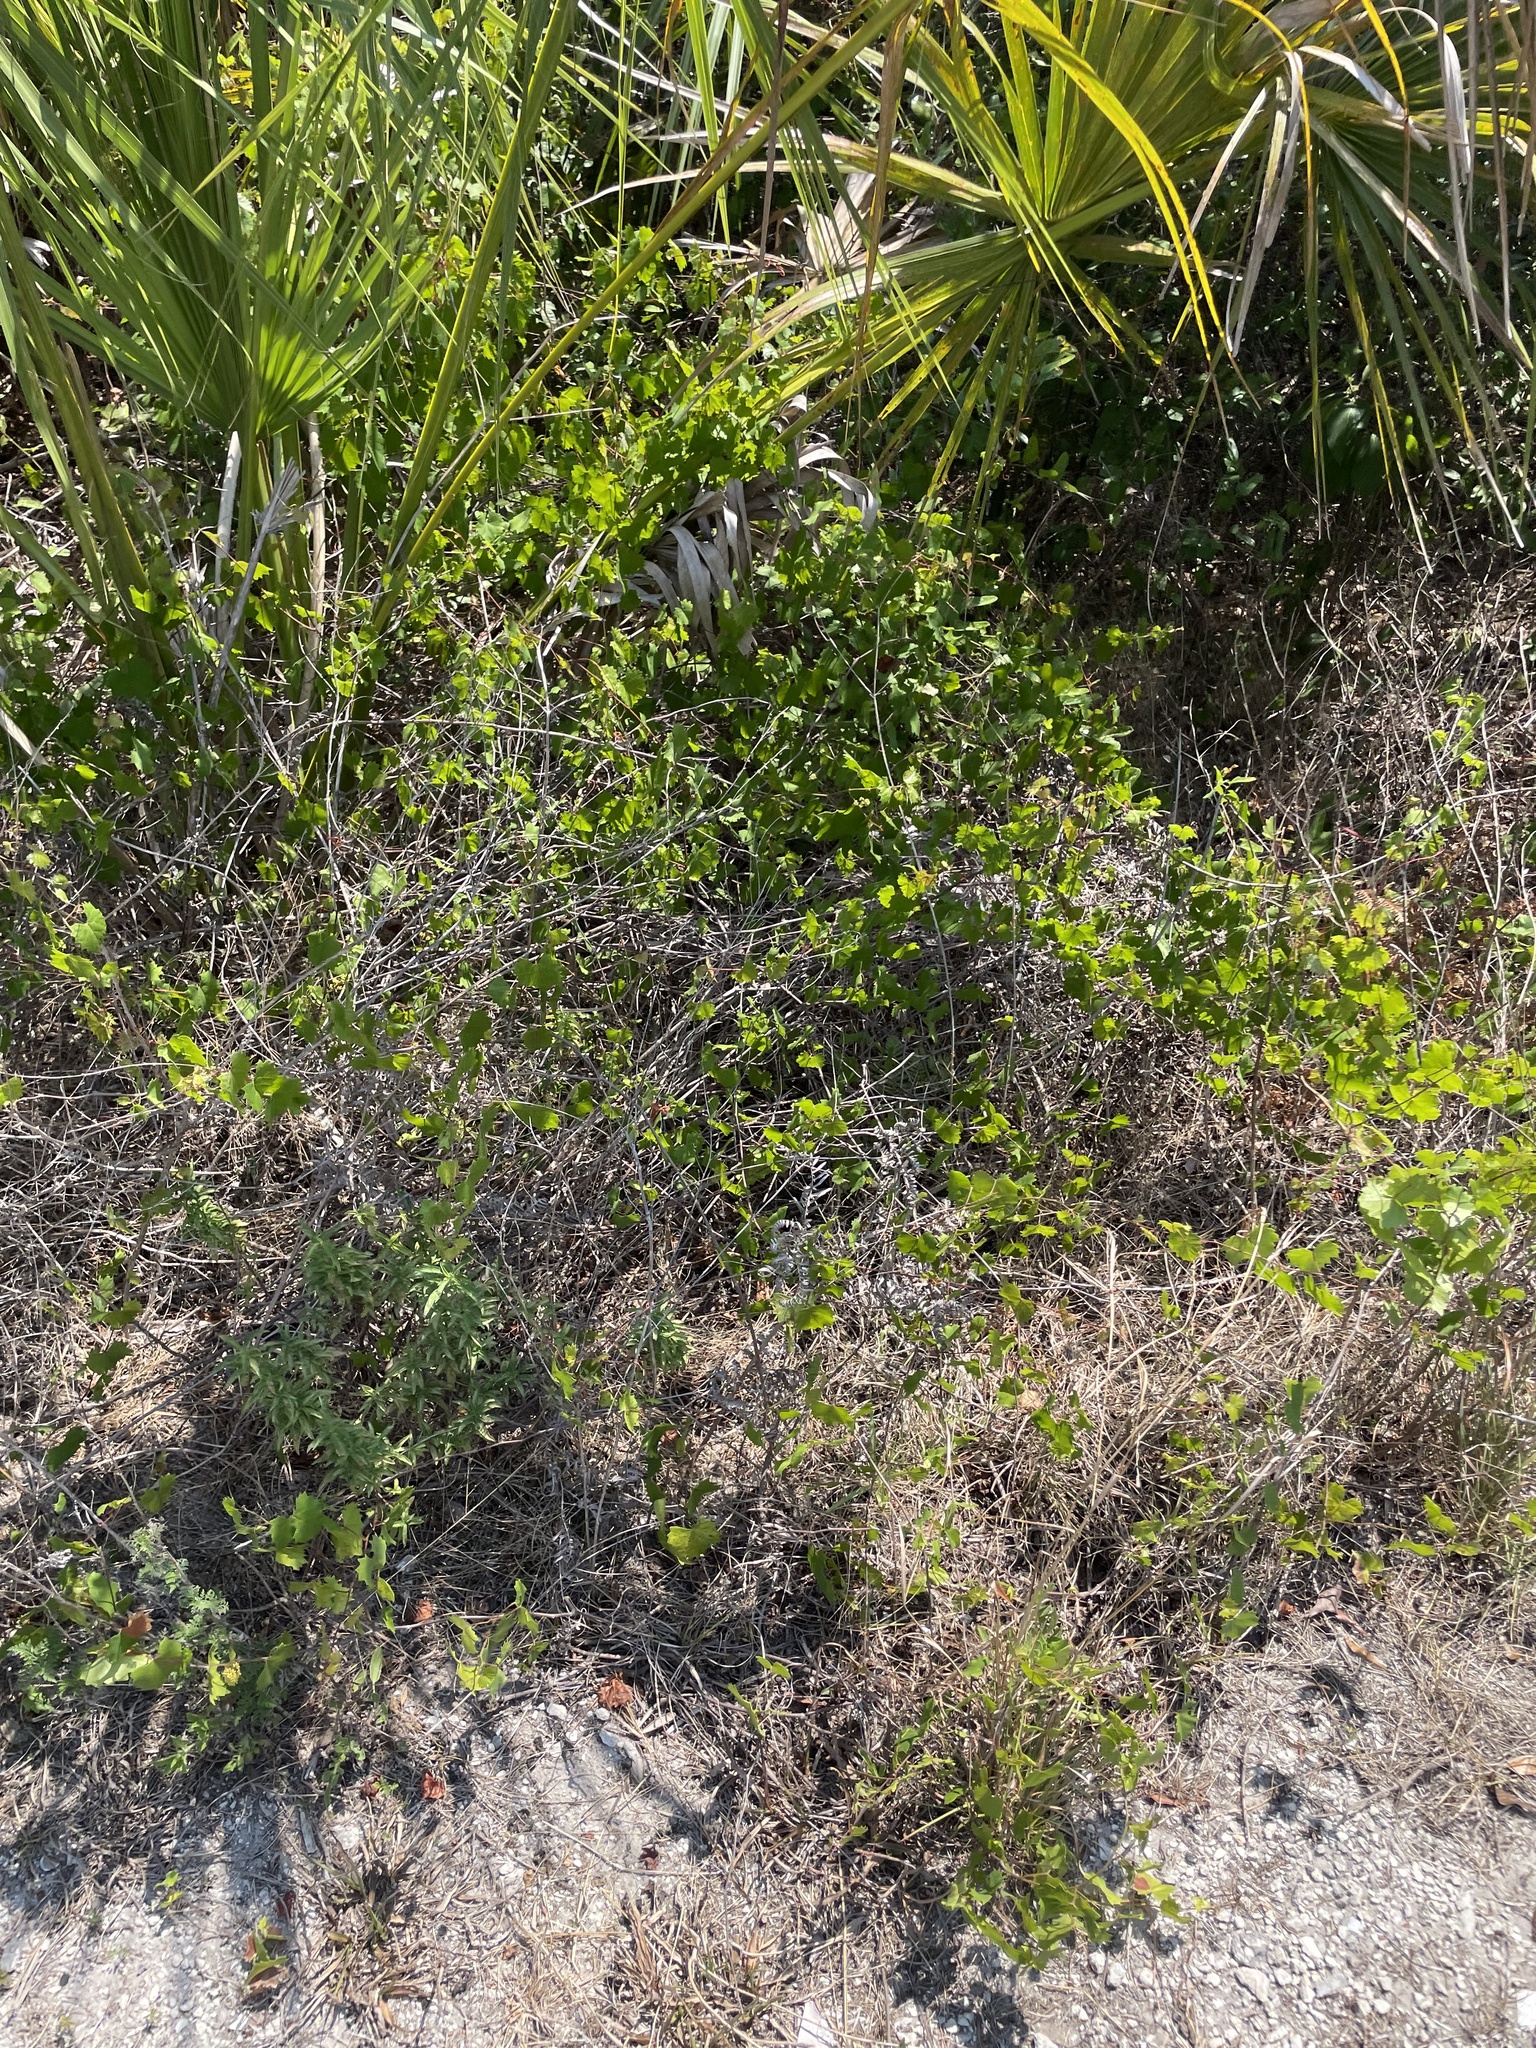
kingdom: Plantae
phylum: Tracheophyta
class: Magnoliopsida
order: Vitales
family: Vitaceae
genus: Vitis
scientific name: Vitis rotundifolia
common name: Muscadine grape
